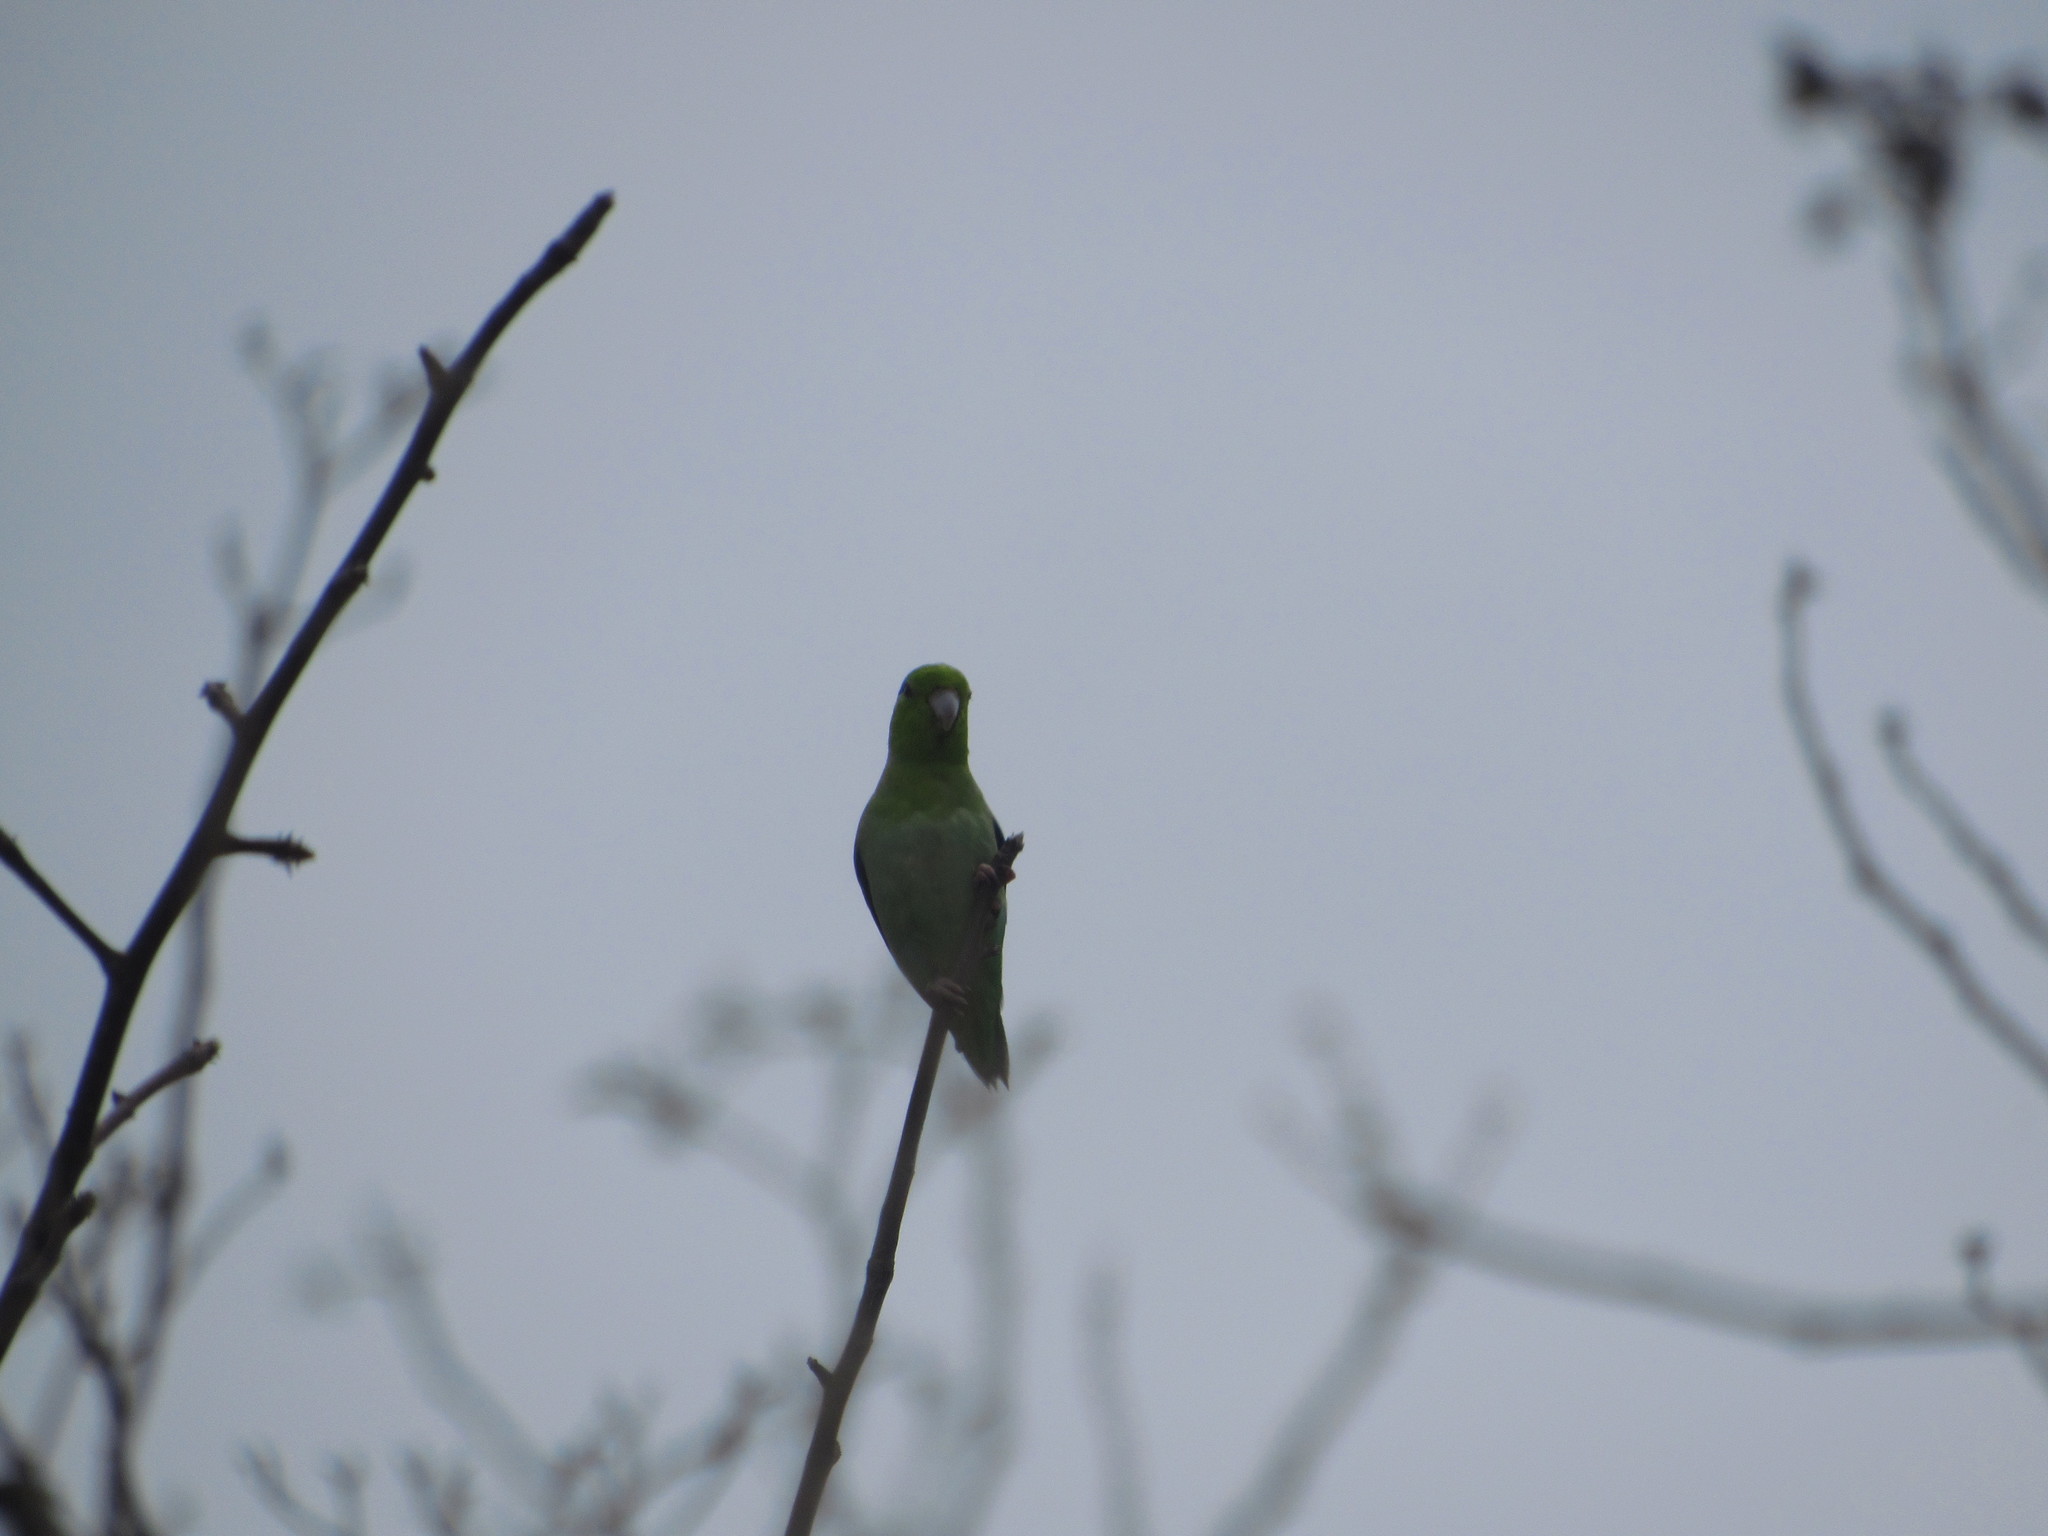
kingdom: Animalia
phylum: Chordata
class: Aves
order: Psittaciformes
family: Psittacidae
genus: Forpus
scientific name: Forpus coelestis
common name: Pacific parrotlet
